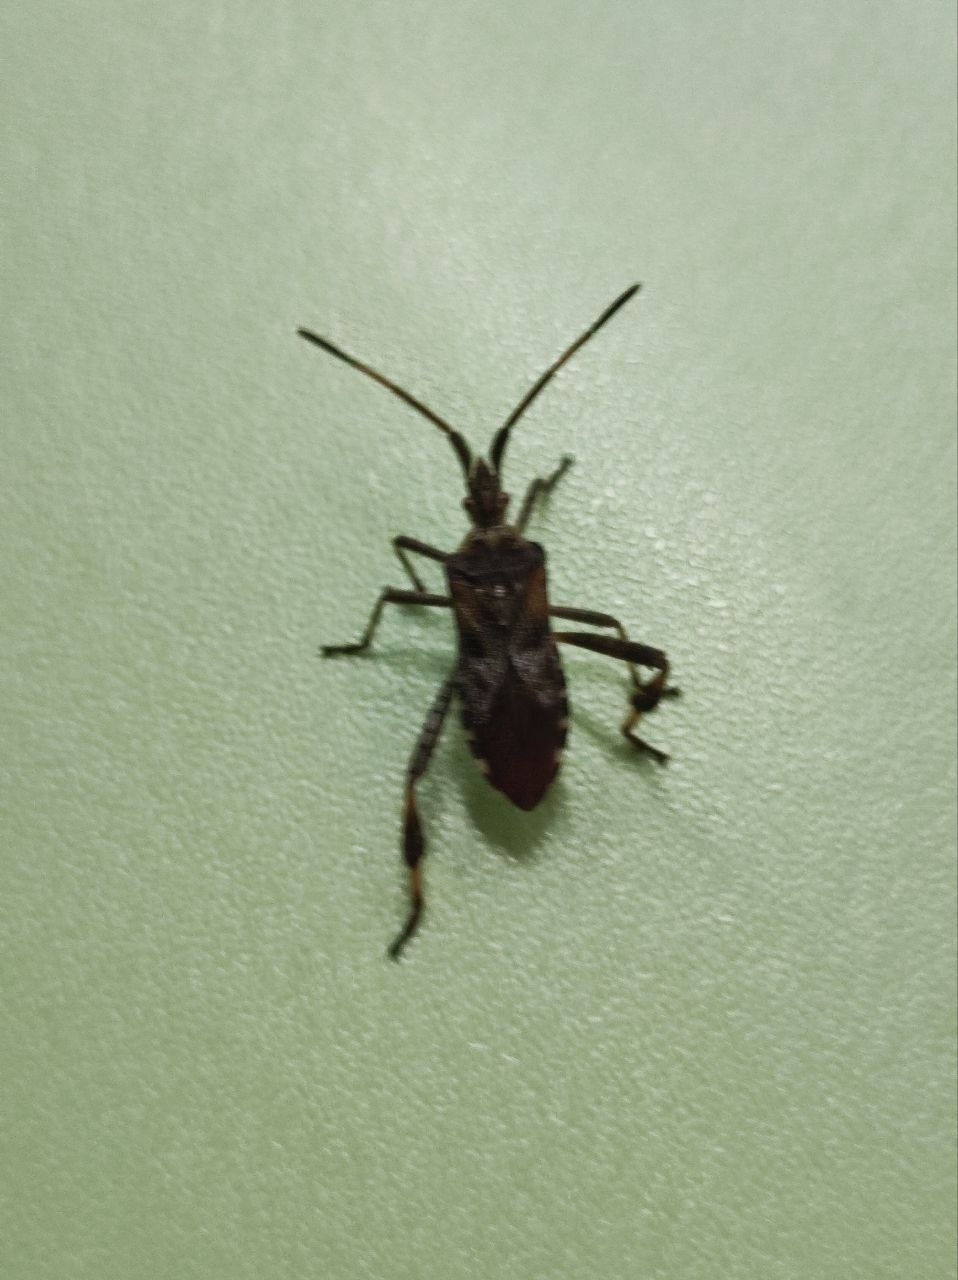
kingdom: Animalia
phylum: Arthropoda
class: Insecta
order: Hemiptera
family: Coreidae
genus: Leptoglossus
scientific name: Leptoglossus occidentalis
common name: Western conifer-seed bug
